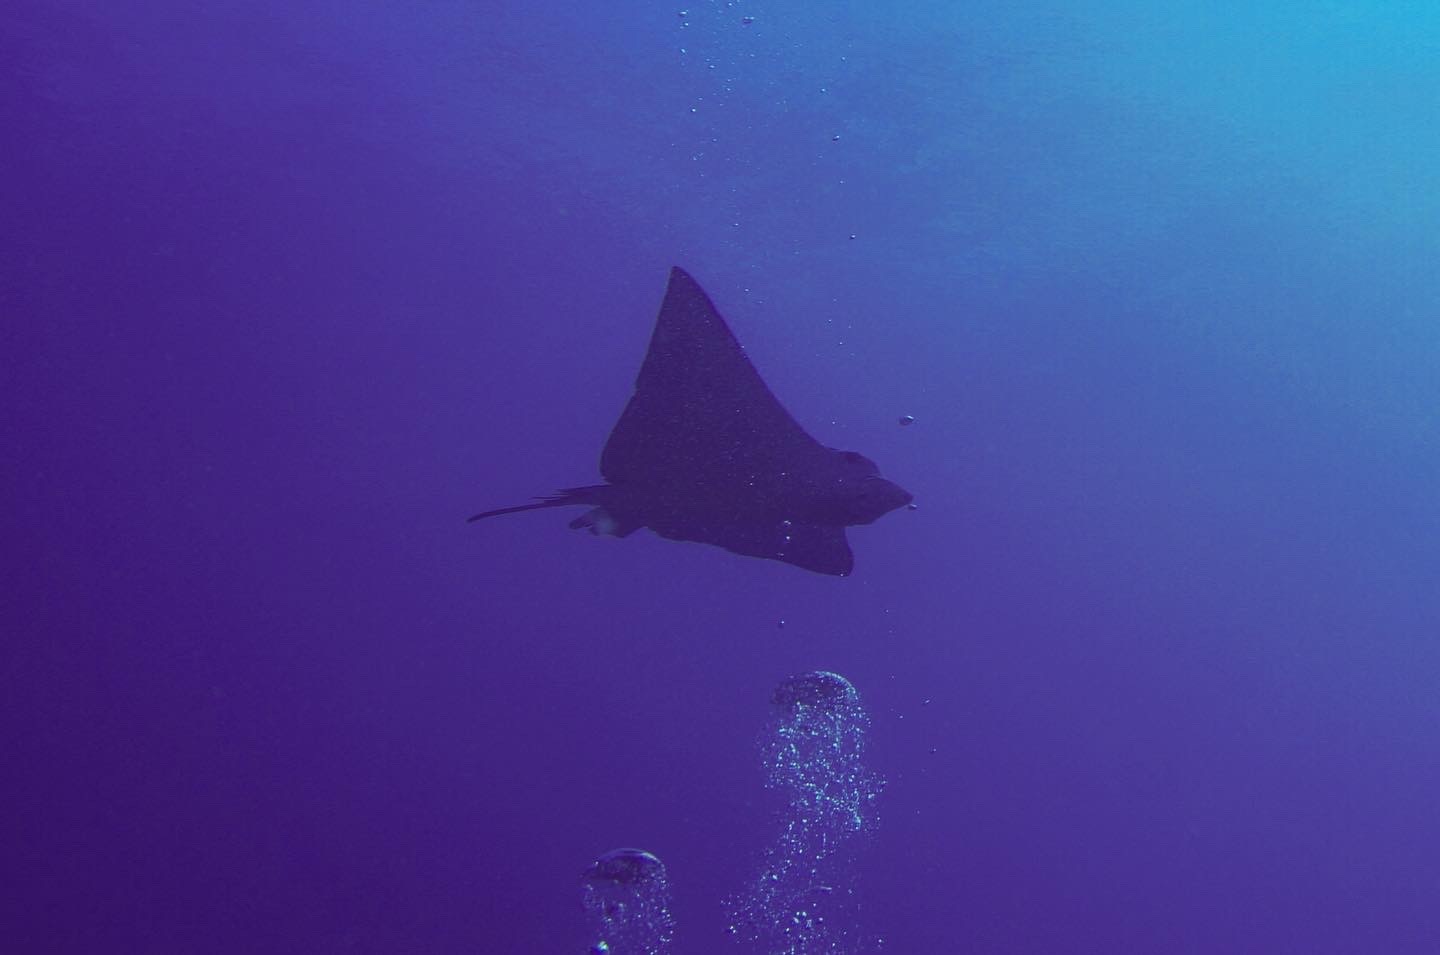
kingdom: Animalia
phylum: Chordata
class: Elasmobranchii
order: Myliobatiformes
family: Myliobatidae
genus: Aetobatus
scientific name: Aetobatus ocellatus
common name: Ocellated eagle ray
